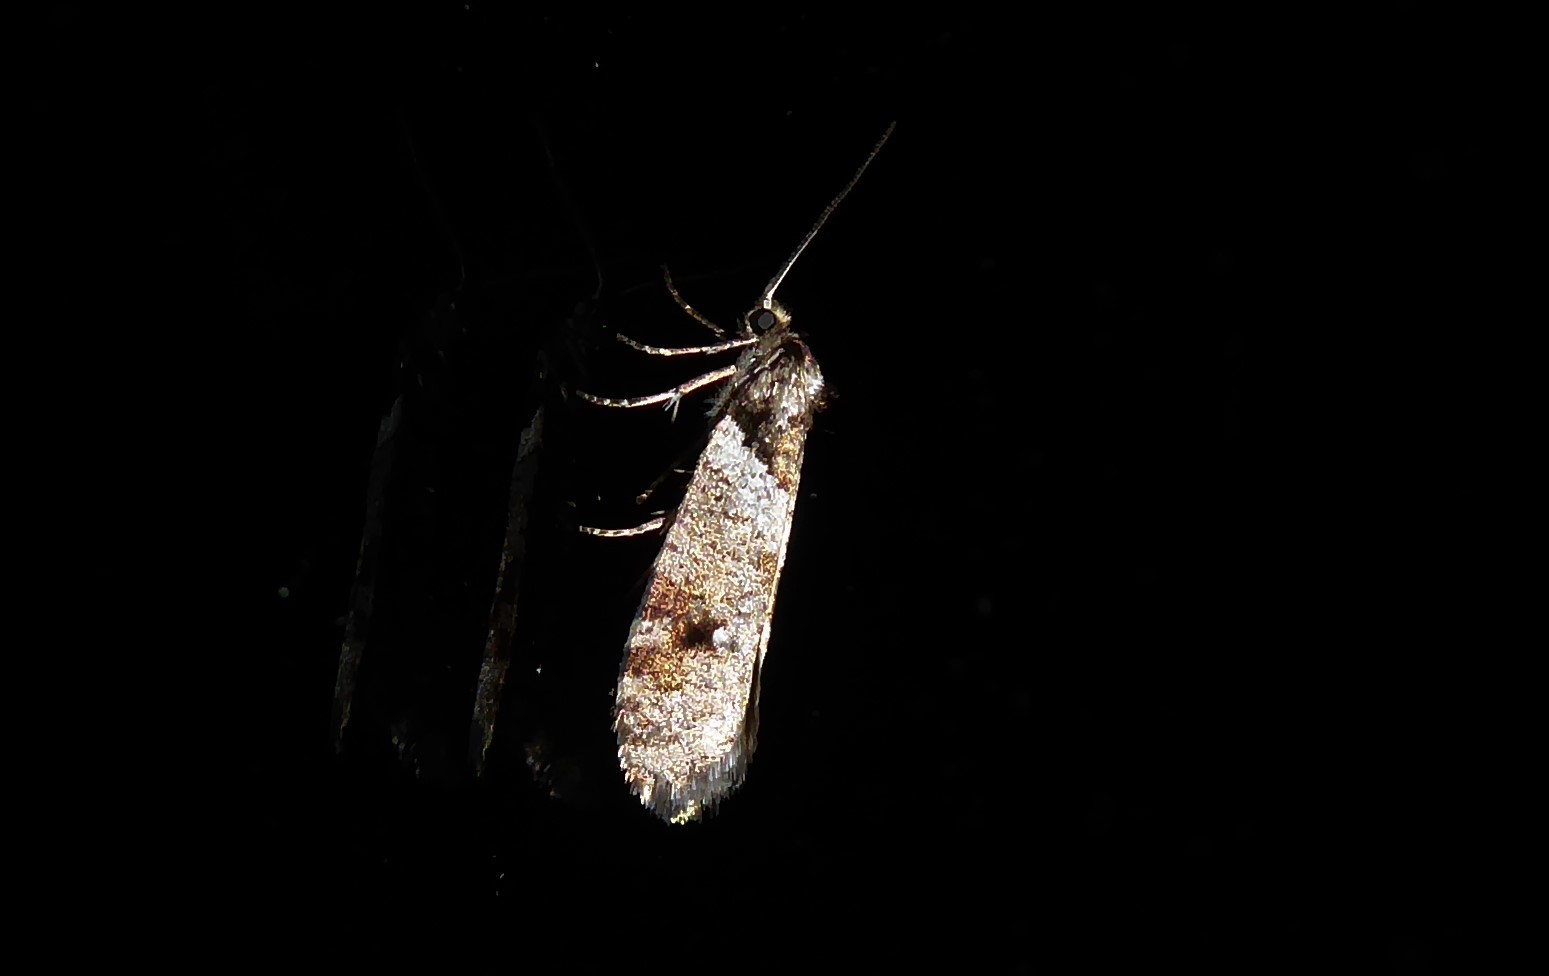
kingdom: Animalia
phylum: Arthropoda
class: Insecta
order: Lepidoptera
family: Psychidae
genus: Lepidoscia
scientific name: Lepidoscia heliochares
